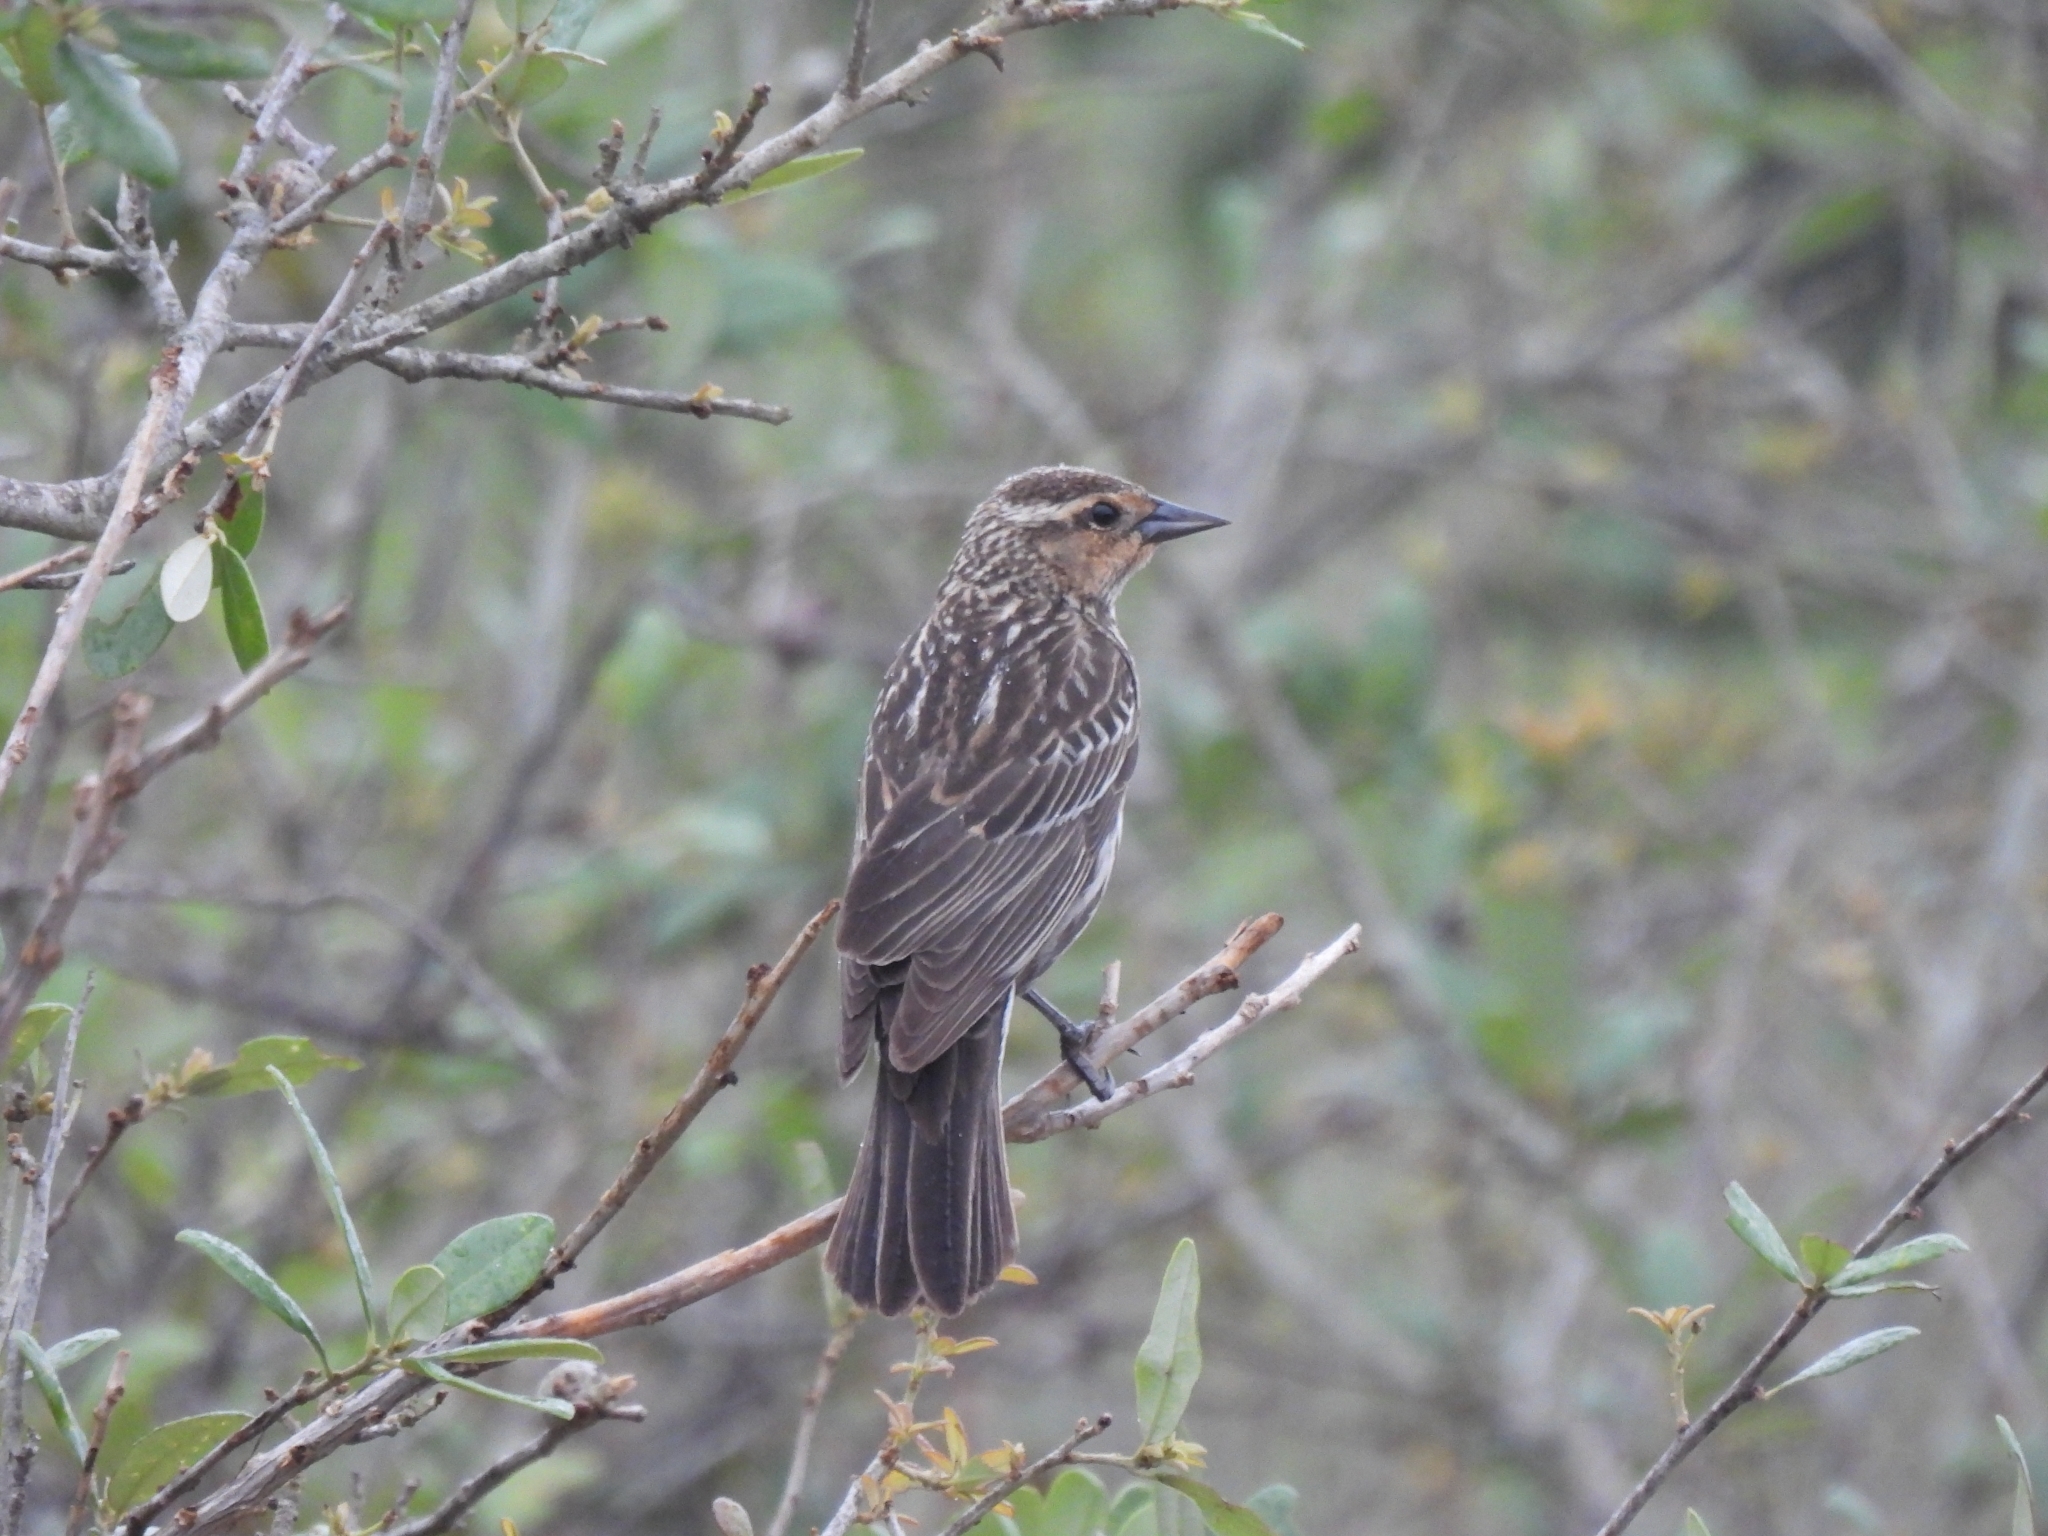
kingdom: Animalia
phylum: Chordata
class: Aves
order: Passeriformes
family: Icteridae
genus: Agelaius
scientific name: Agelaius phoeniceus
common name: Red-winged blackbird
